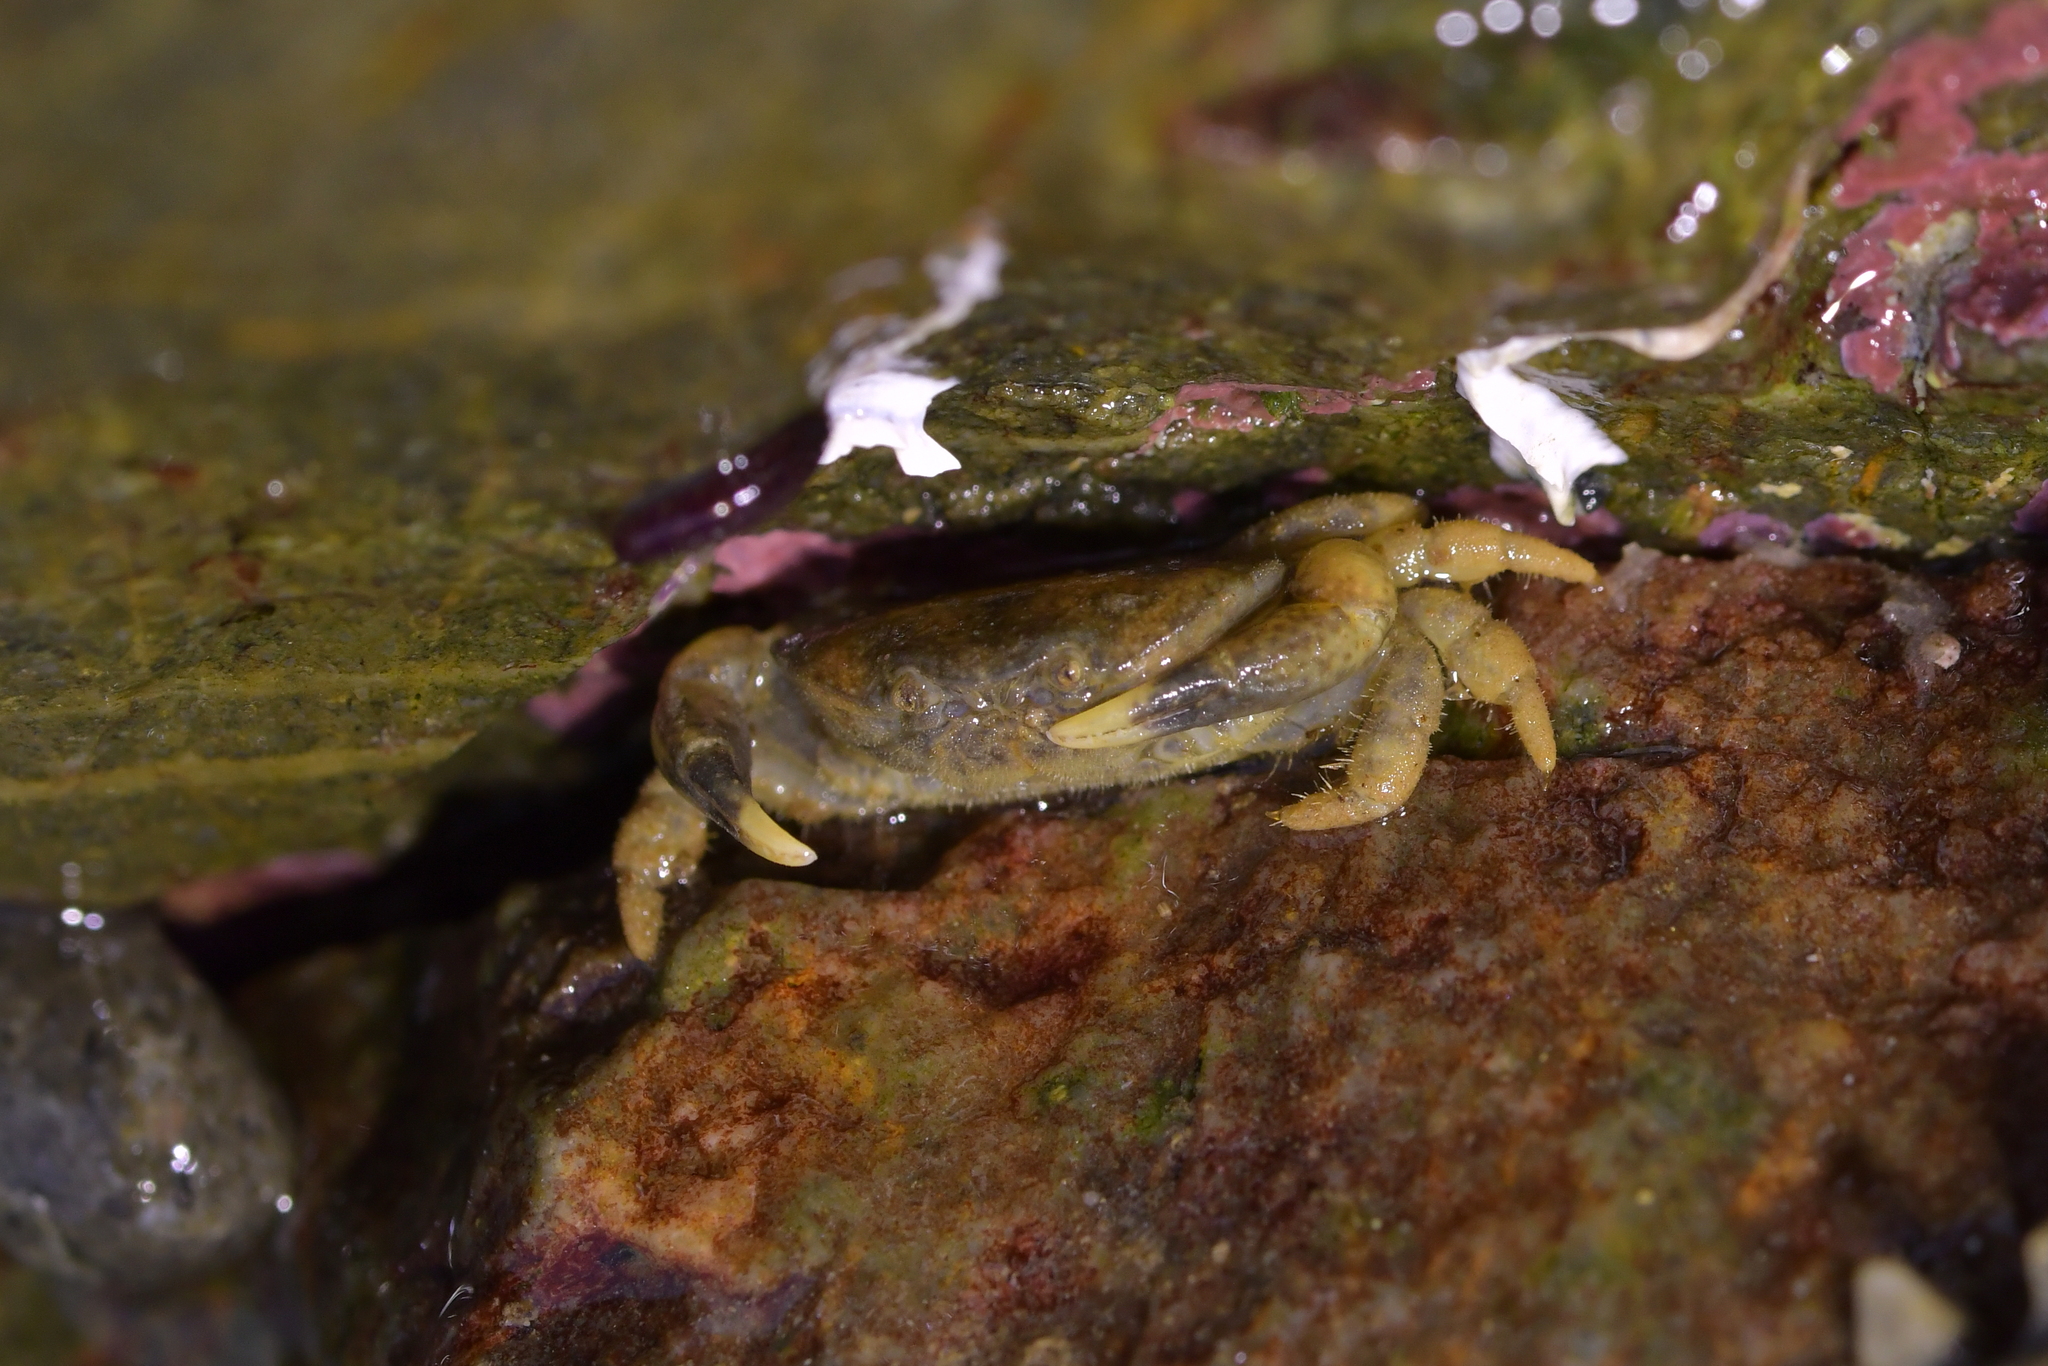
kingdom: Animalia
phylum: Arthropoda
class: Malacostraca
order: Decapoda
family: Heteroziidae
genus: Heterozius
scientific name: Heterozius rotundifrons
